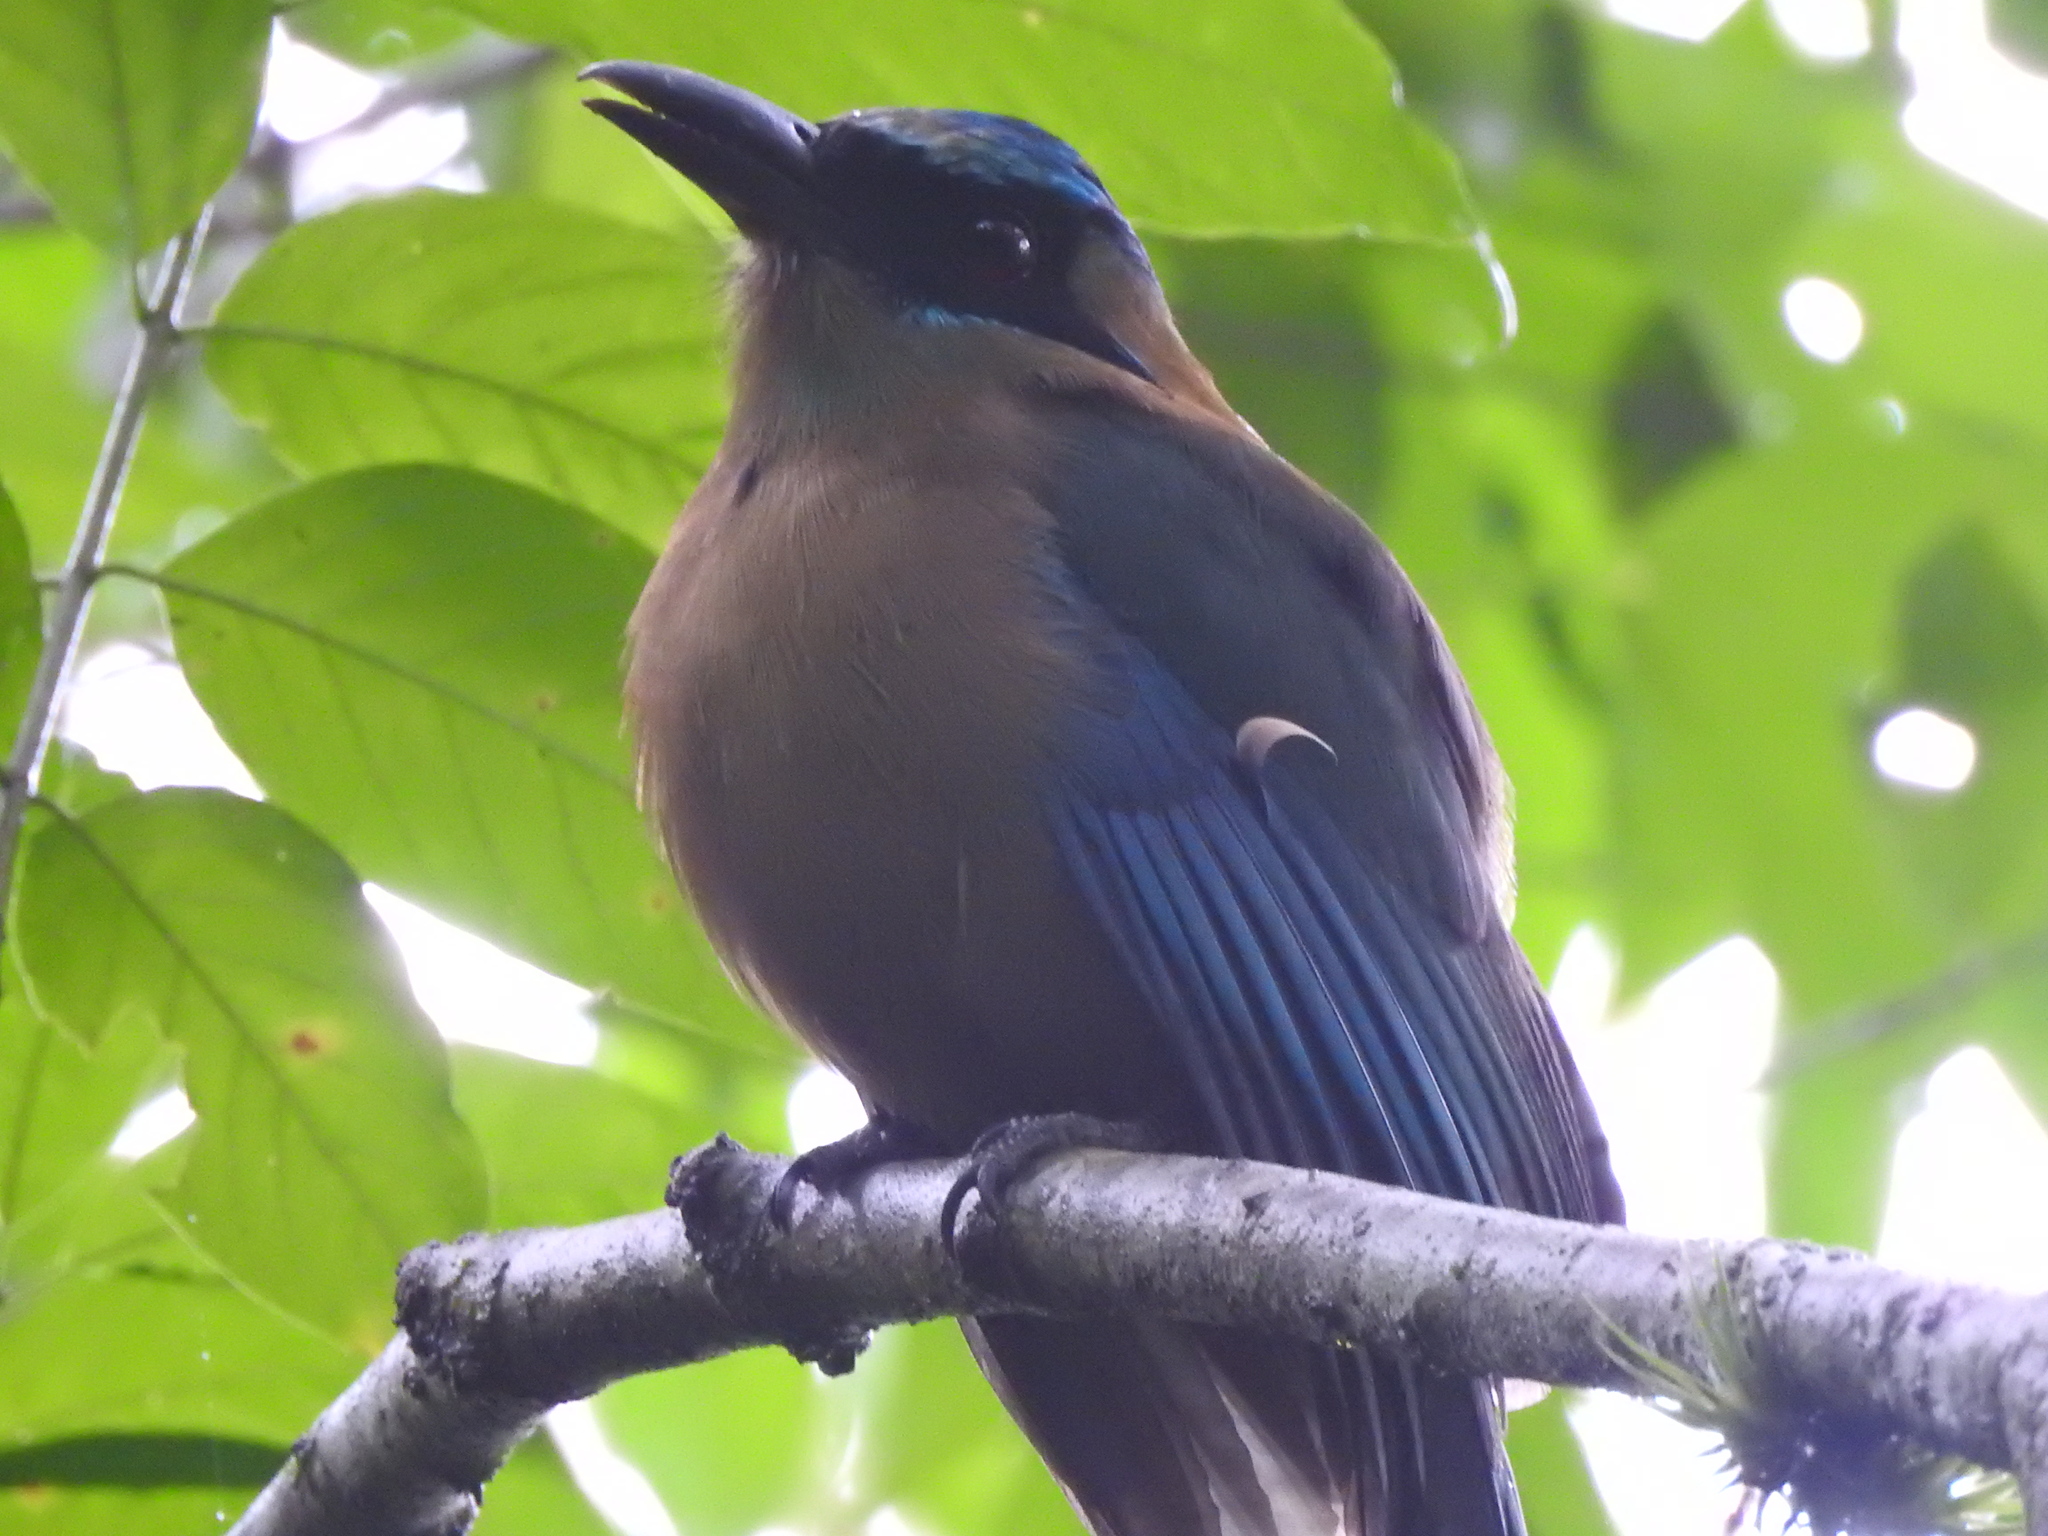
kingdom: Animalia
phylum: Chordata
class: Aves
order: Coraciiformes
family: Momotidae
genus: Momotus
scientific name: Momotus coeruliceps
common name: Blue-capped motmot
